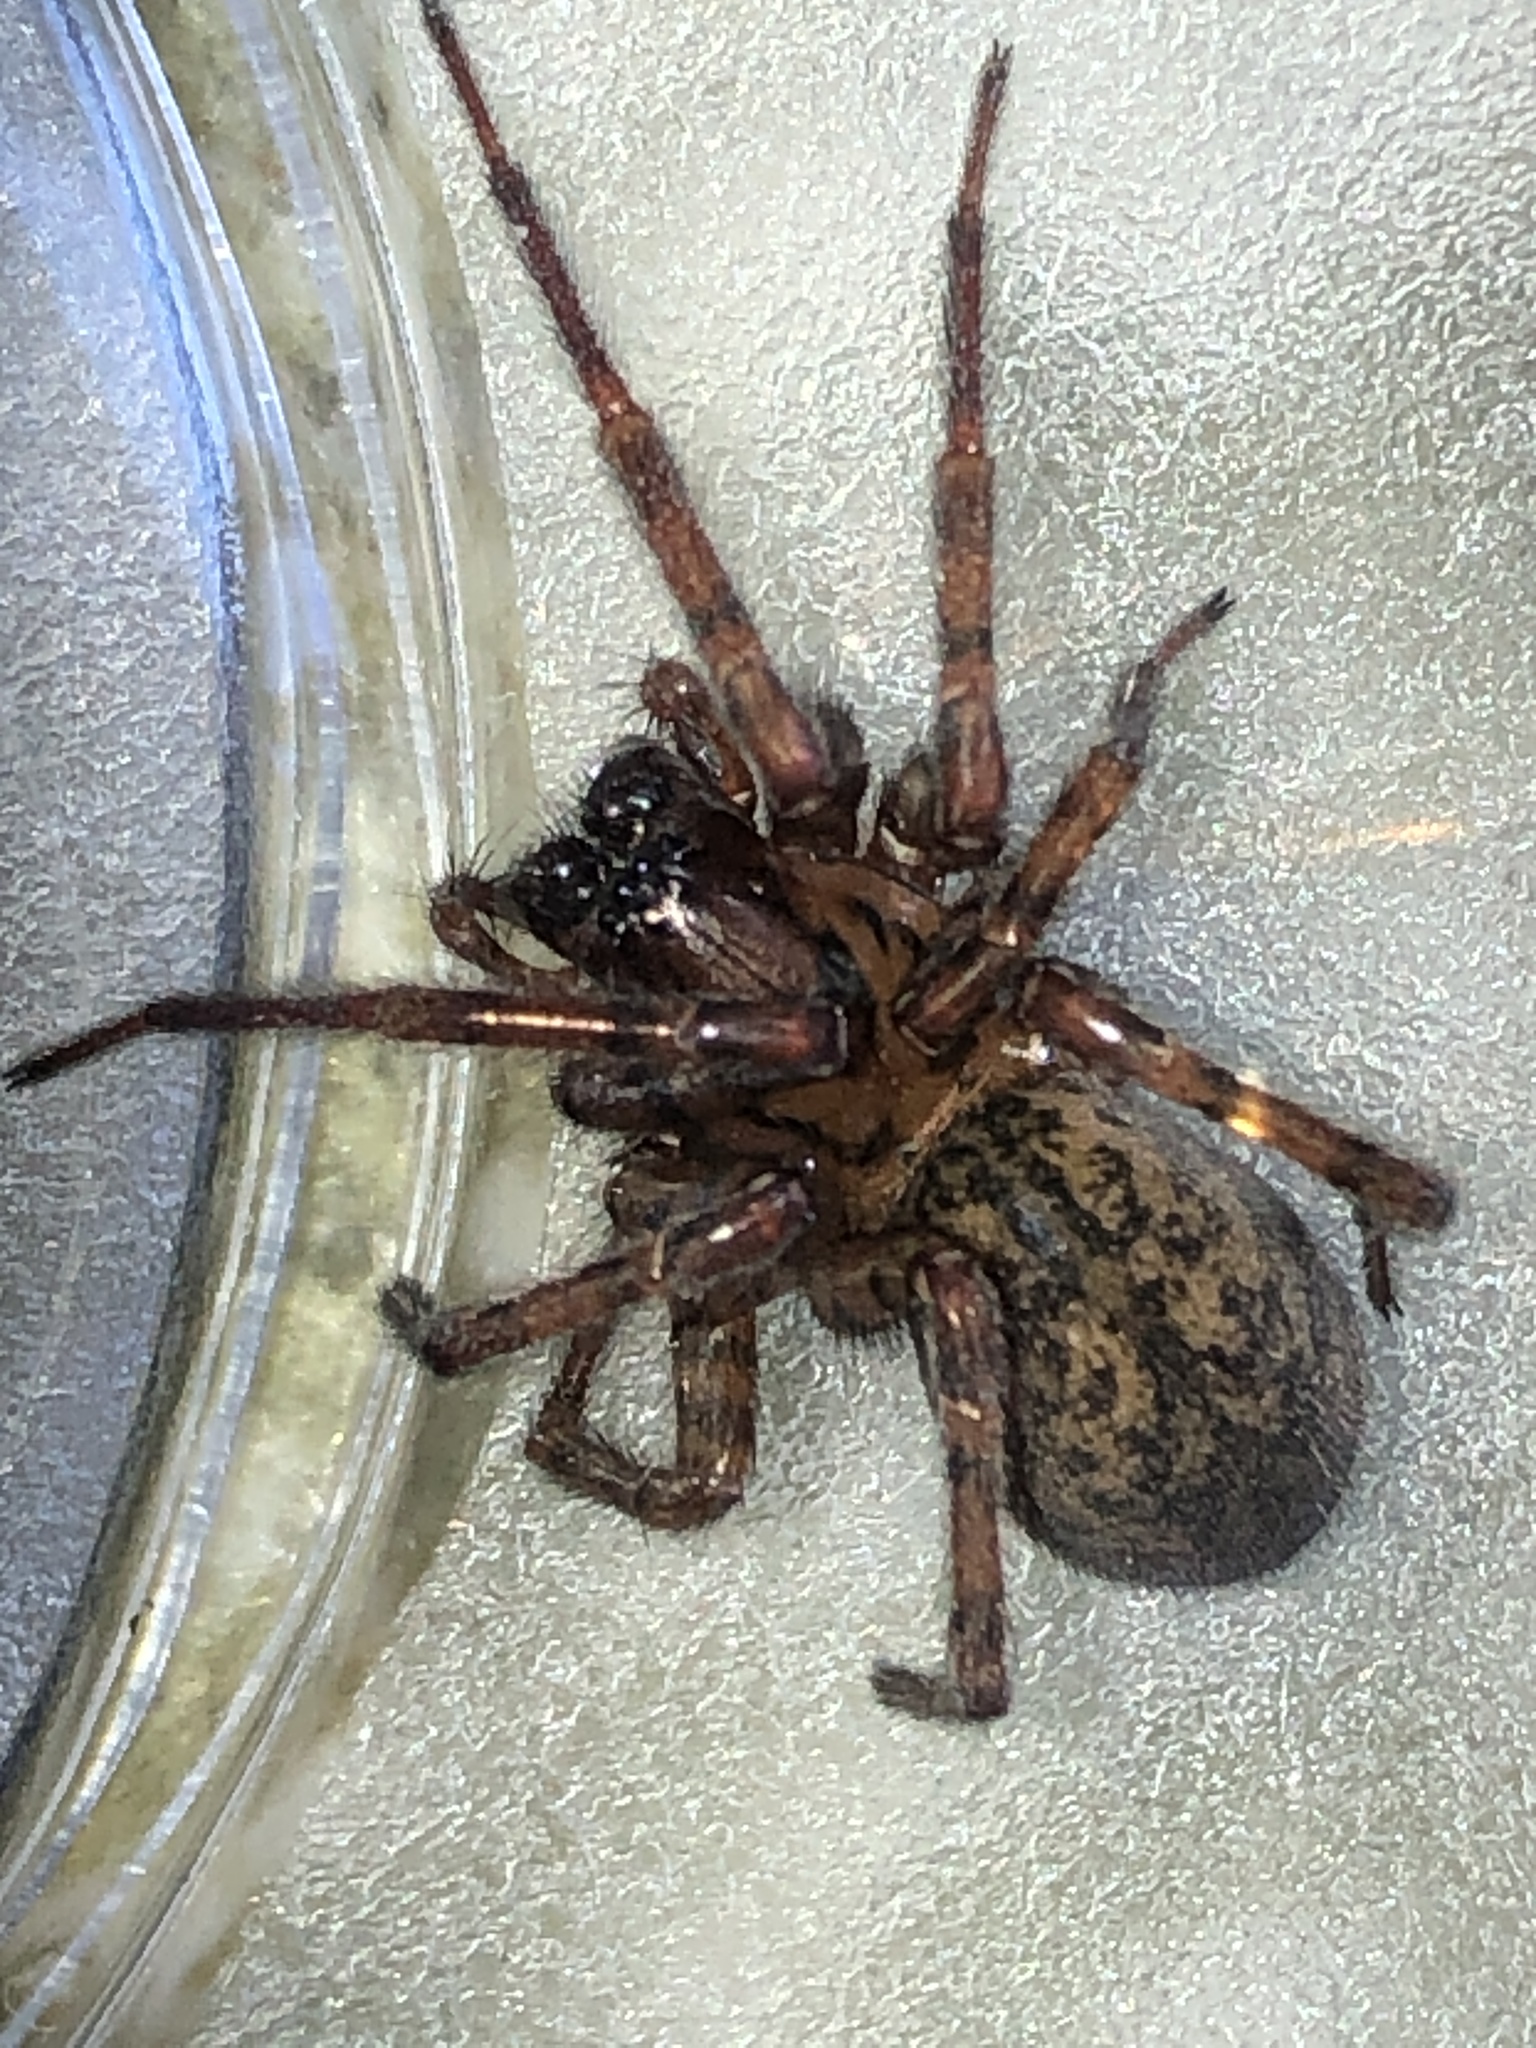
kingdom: Animalia
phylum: Arthropoda
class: Arachnida
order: Araneae
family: Agelenidae
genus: Coras
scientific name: Coras
